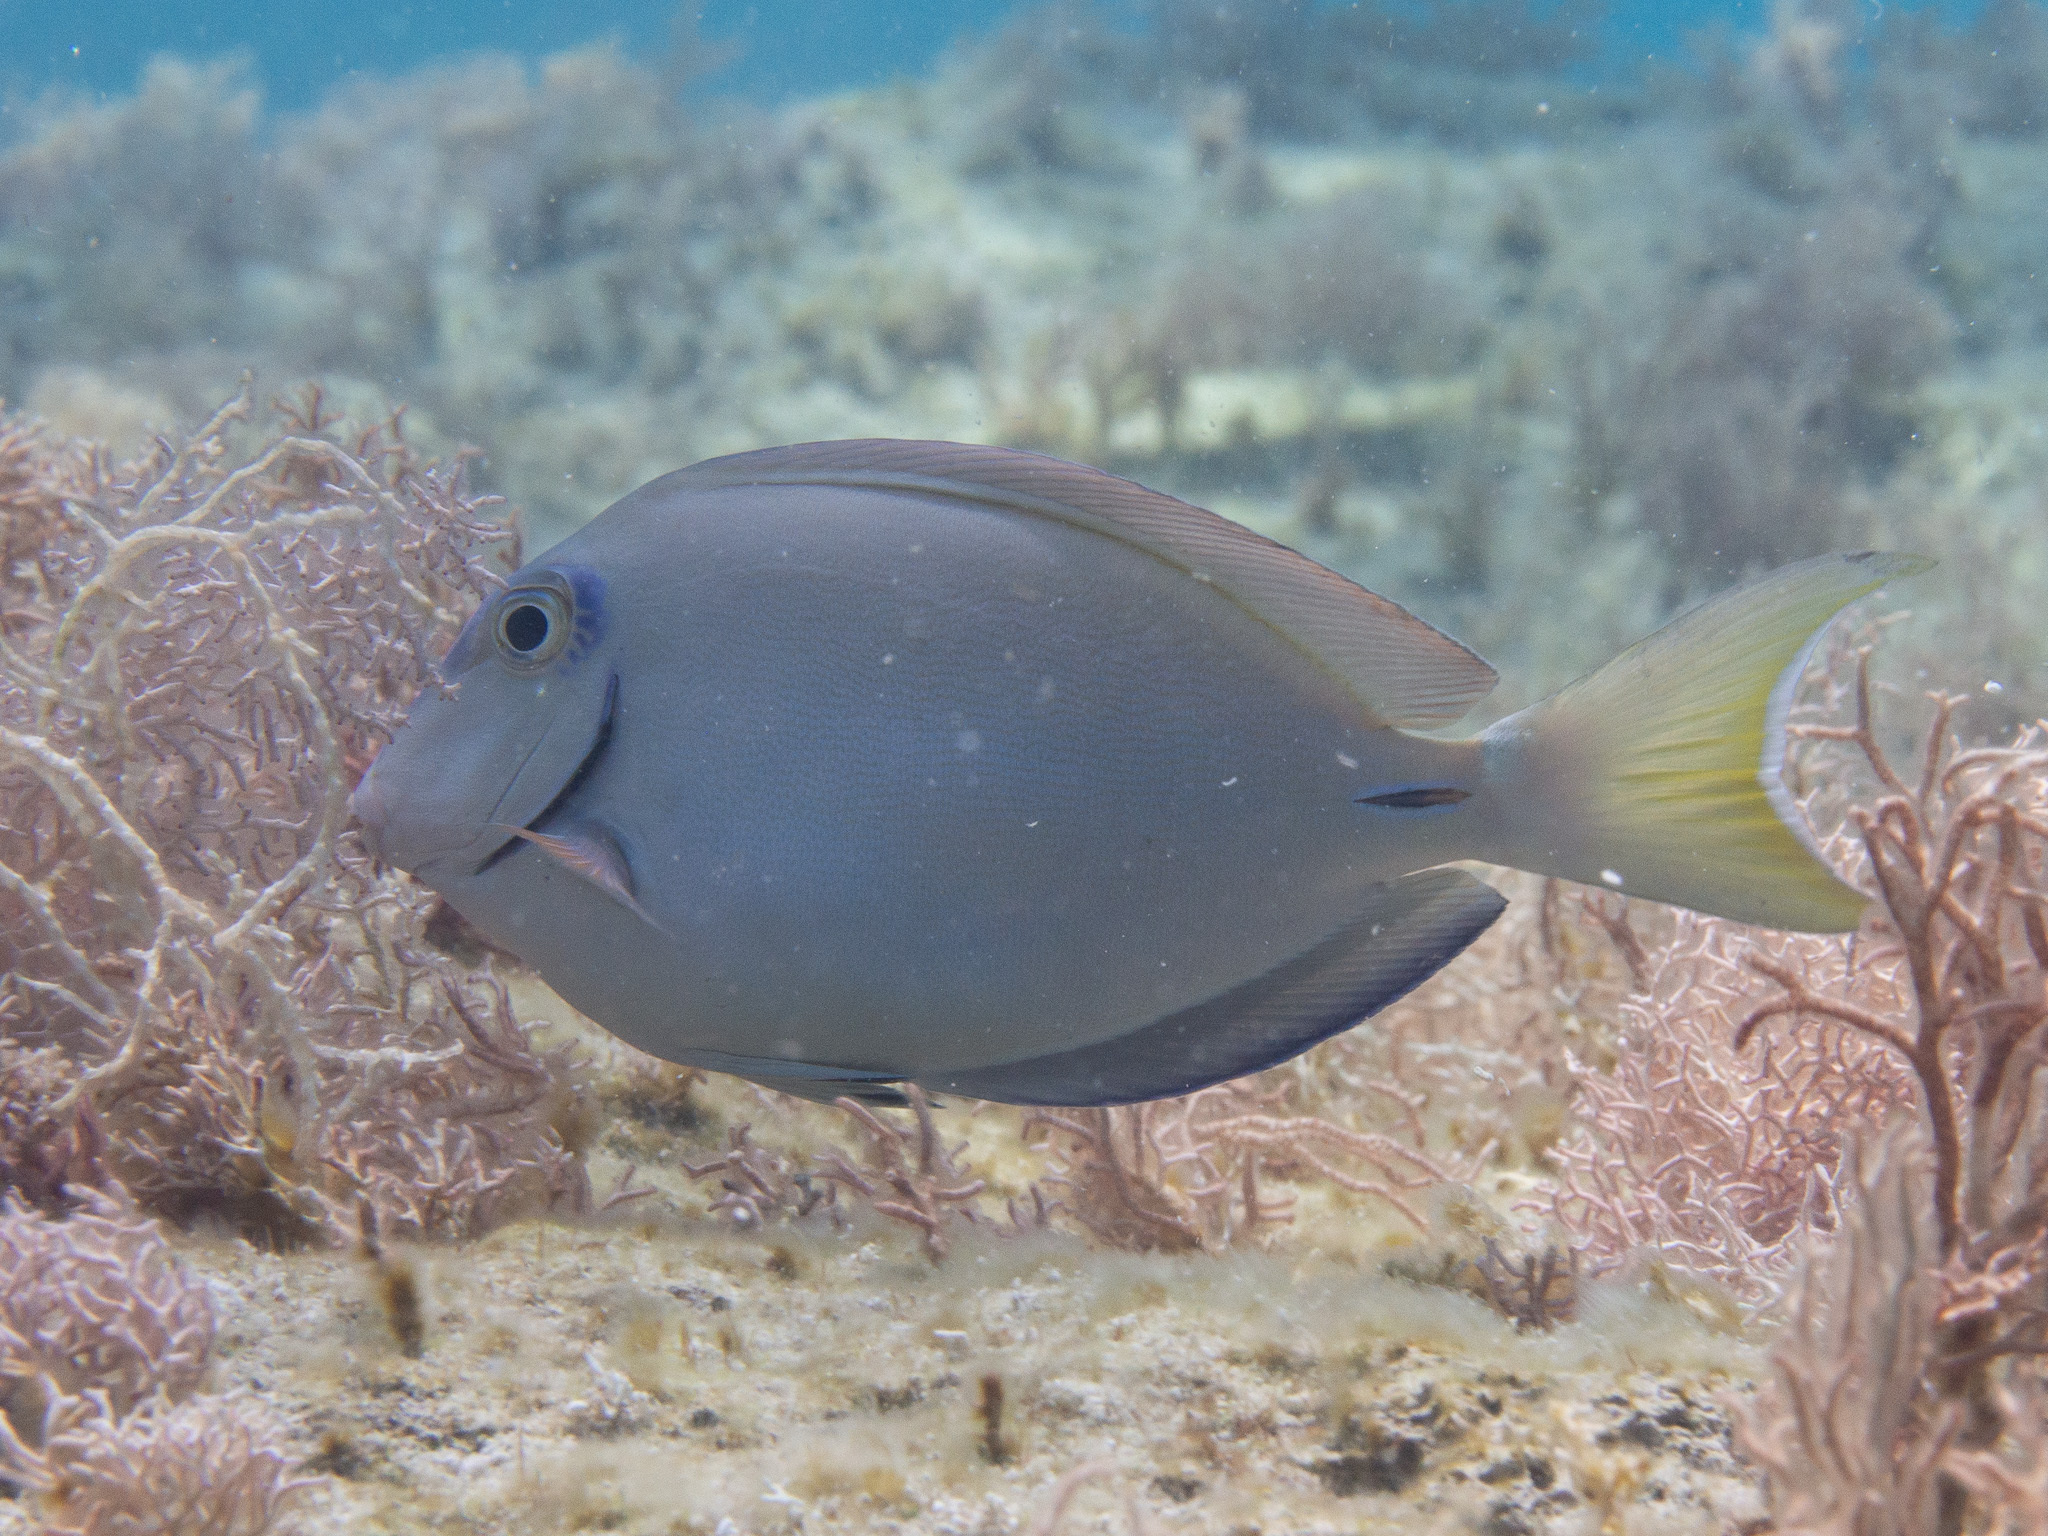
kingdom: Animalia
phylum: Chordata
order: Perciformes
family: Acanthuridae
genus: Acanthurus
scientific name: Acanthurus bahianus
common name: Ocean surgeon
